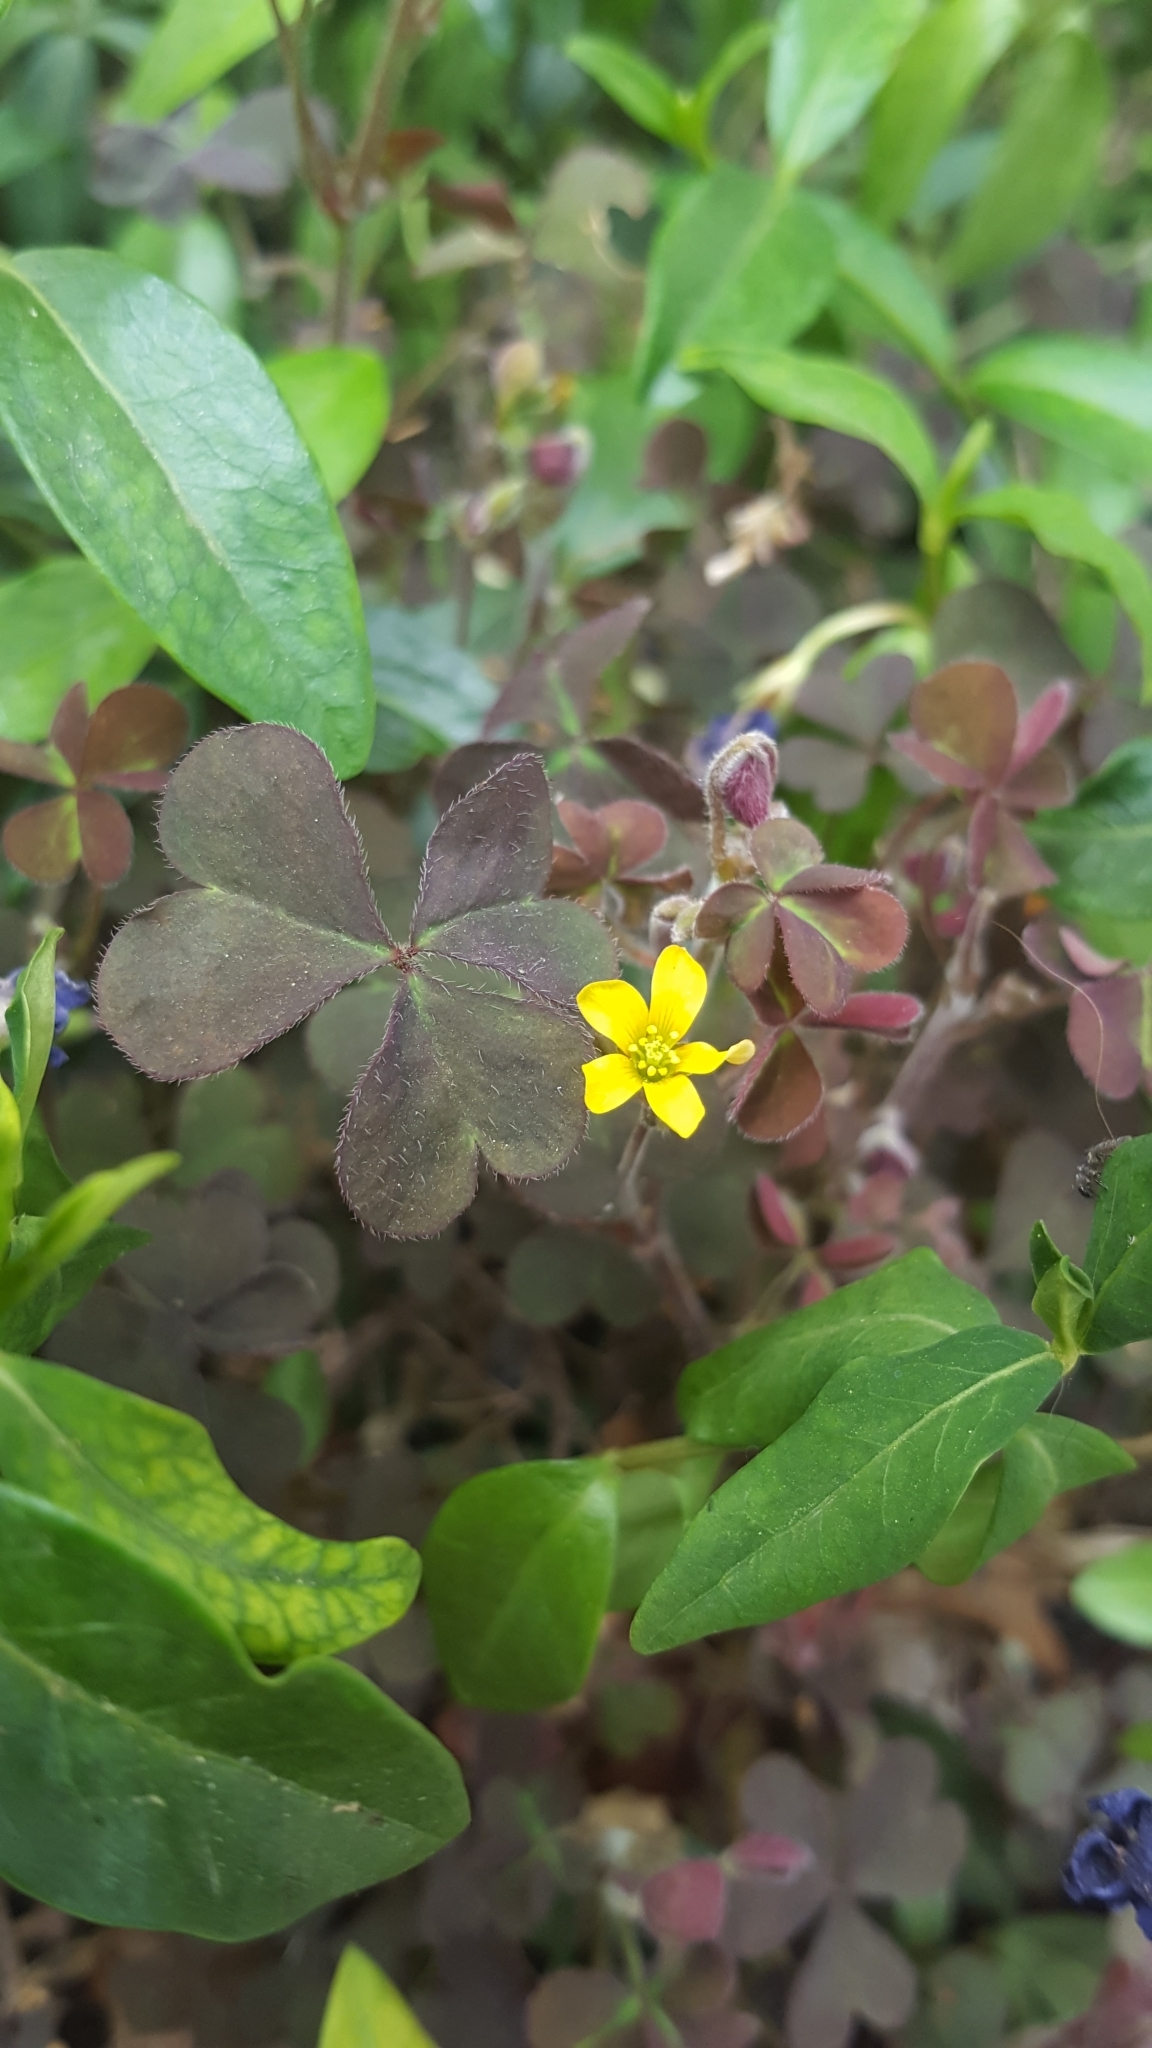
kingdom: Plantae
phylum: Tracheophyta
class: Magnoliopsida
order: Oxalidales
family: Oxalidaceae
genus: Oxalis
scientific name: Oxalis corniculata
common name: Procumbent yellow-sorrel
